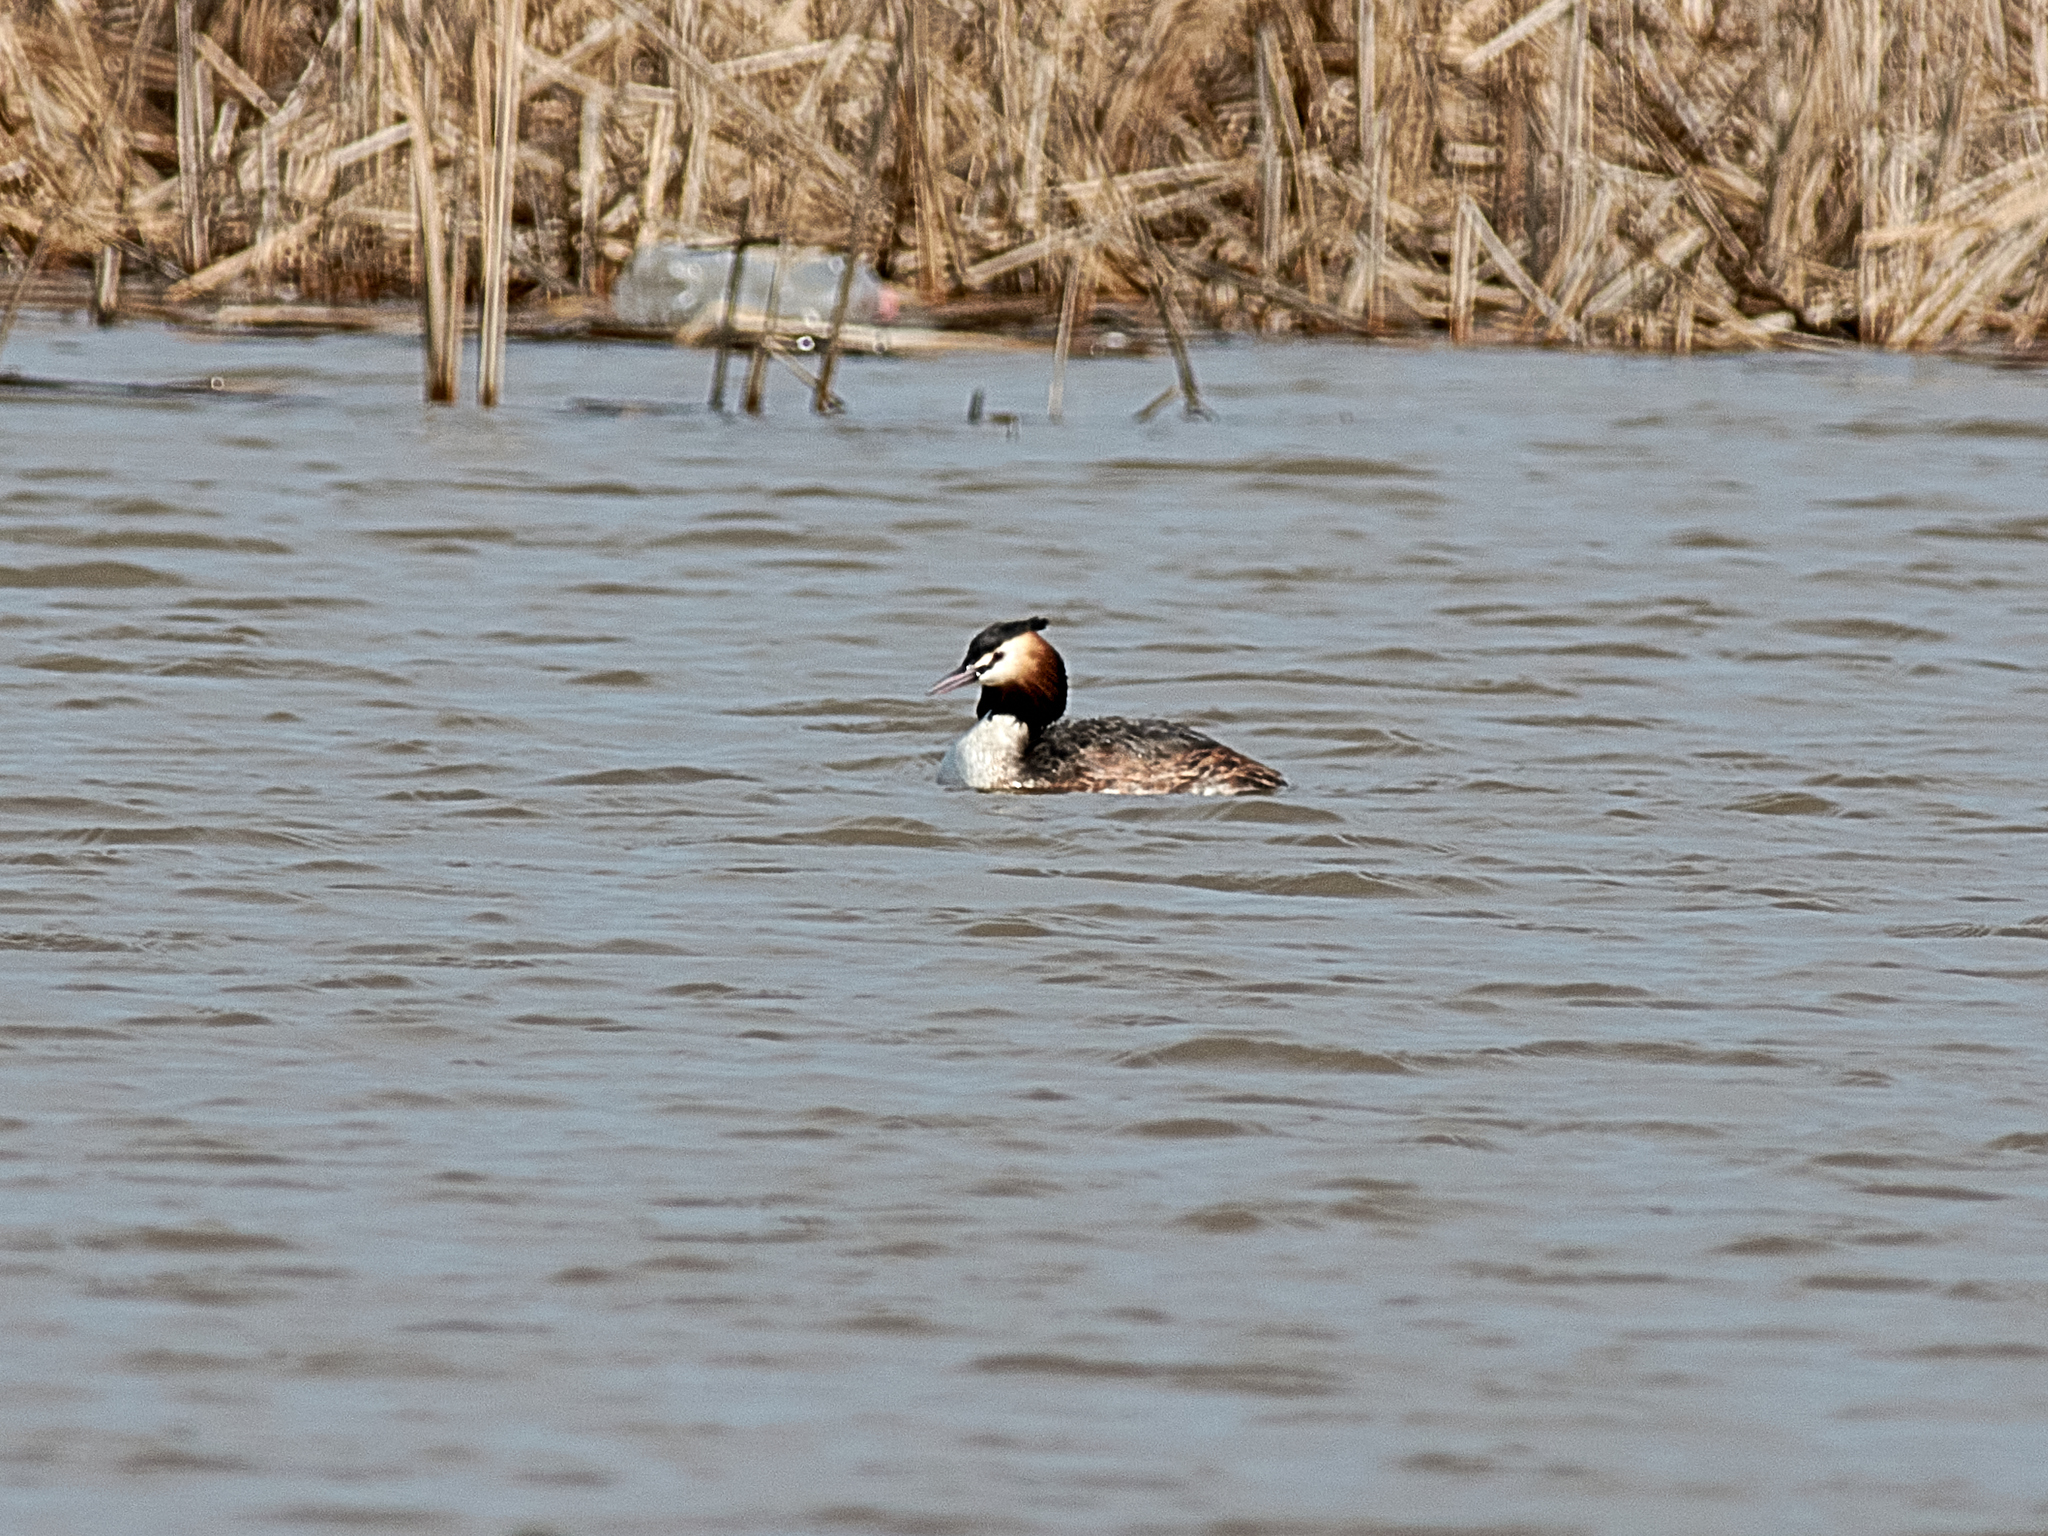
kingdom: Animalia
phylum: Chordata
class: Aves
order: Podicipediformes
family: Podicipedidae
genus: Podiceps
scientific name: Podiceps cristatus
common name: Great crested grebe
